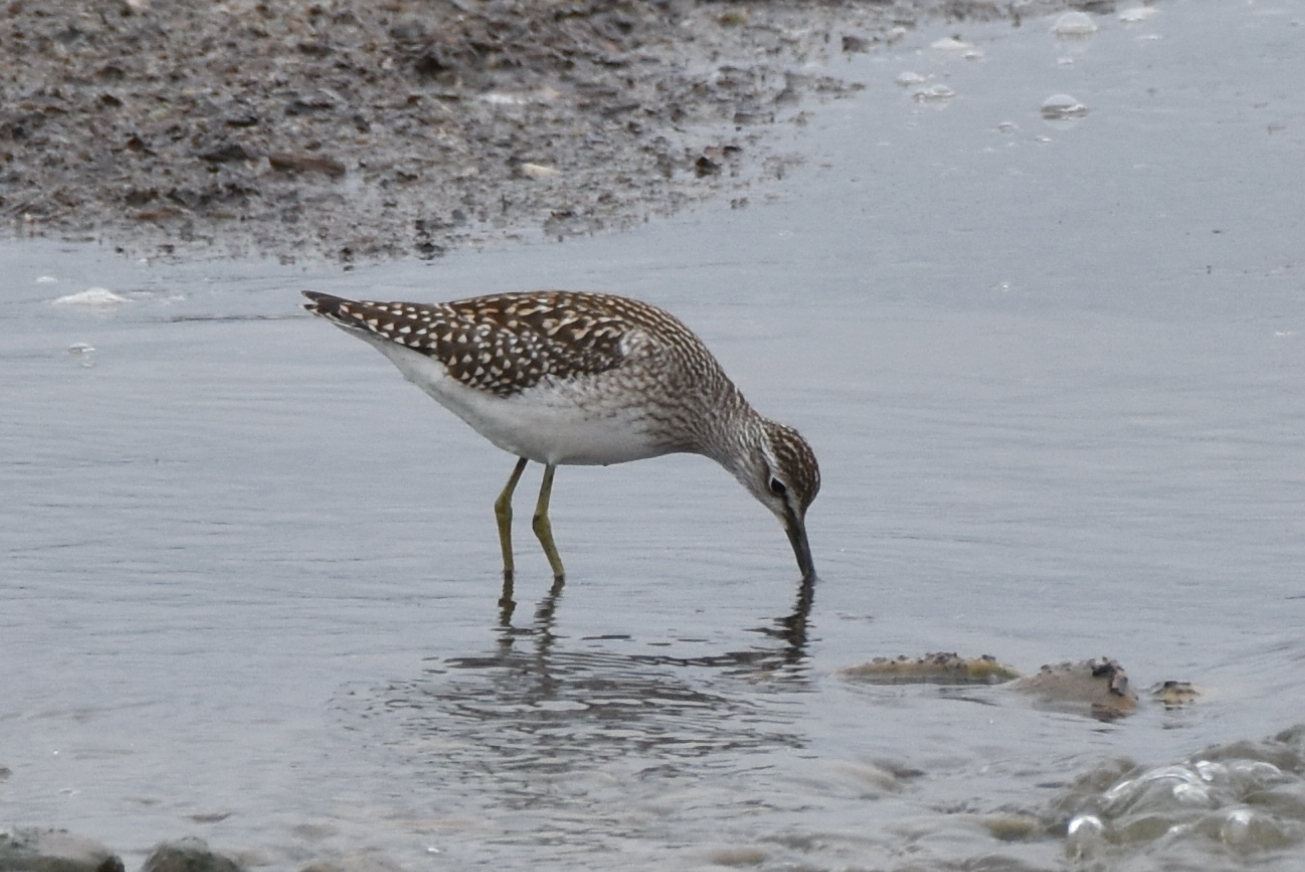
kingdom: Animalia
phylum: Chordata
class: Aves
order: Charadriiformes
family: Scolopacidae
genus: Tringa
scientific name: Tringa glareola
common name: Wood sandpiper
